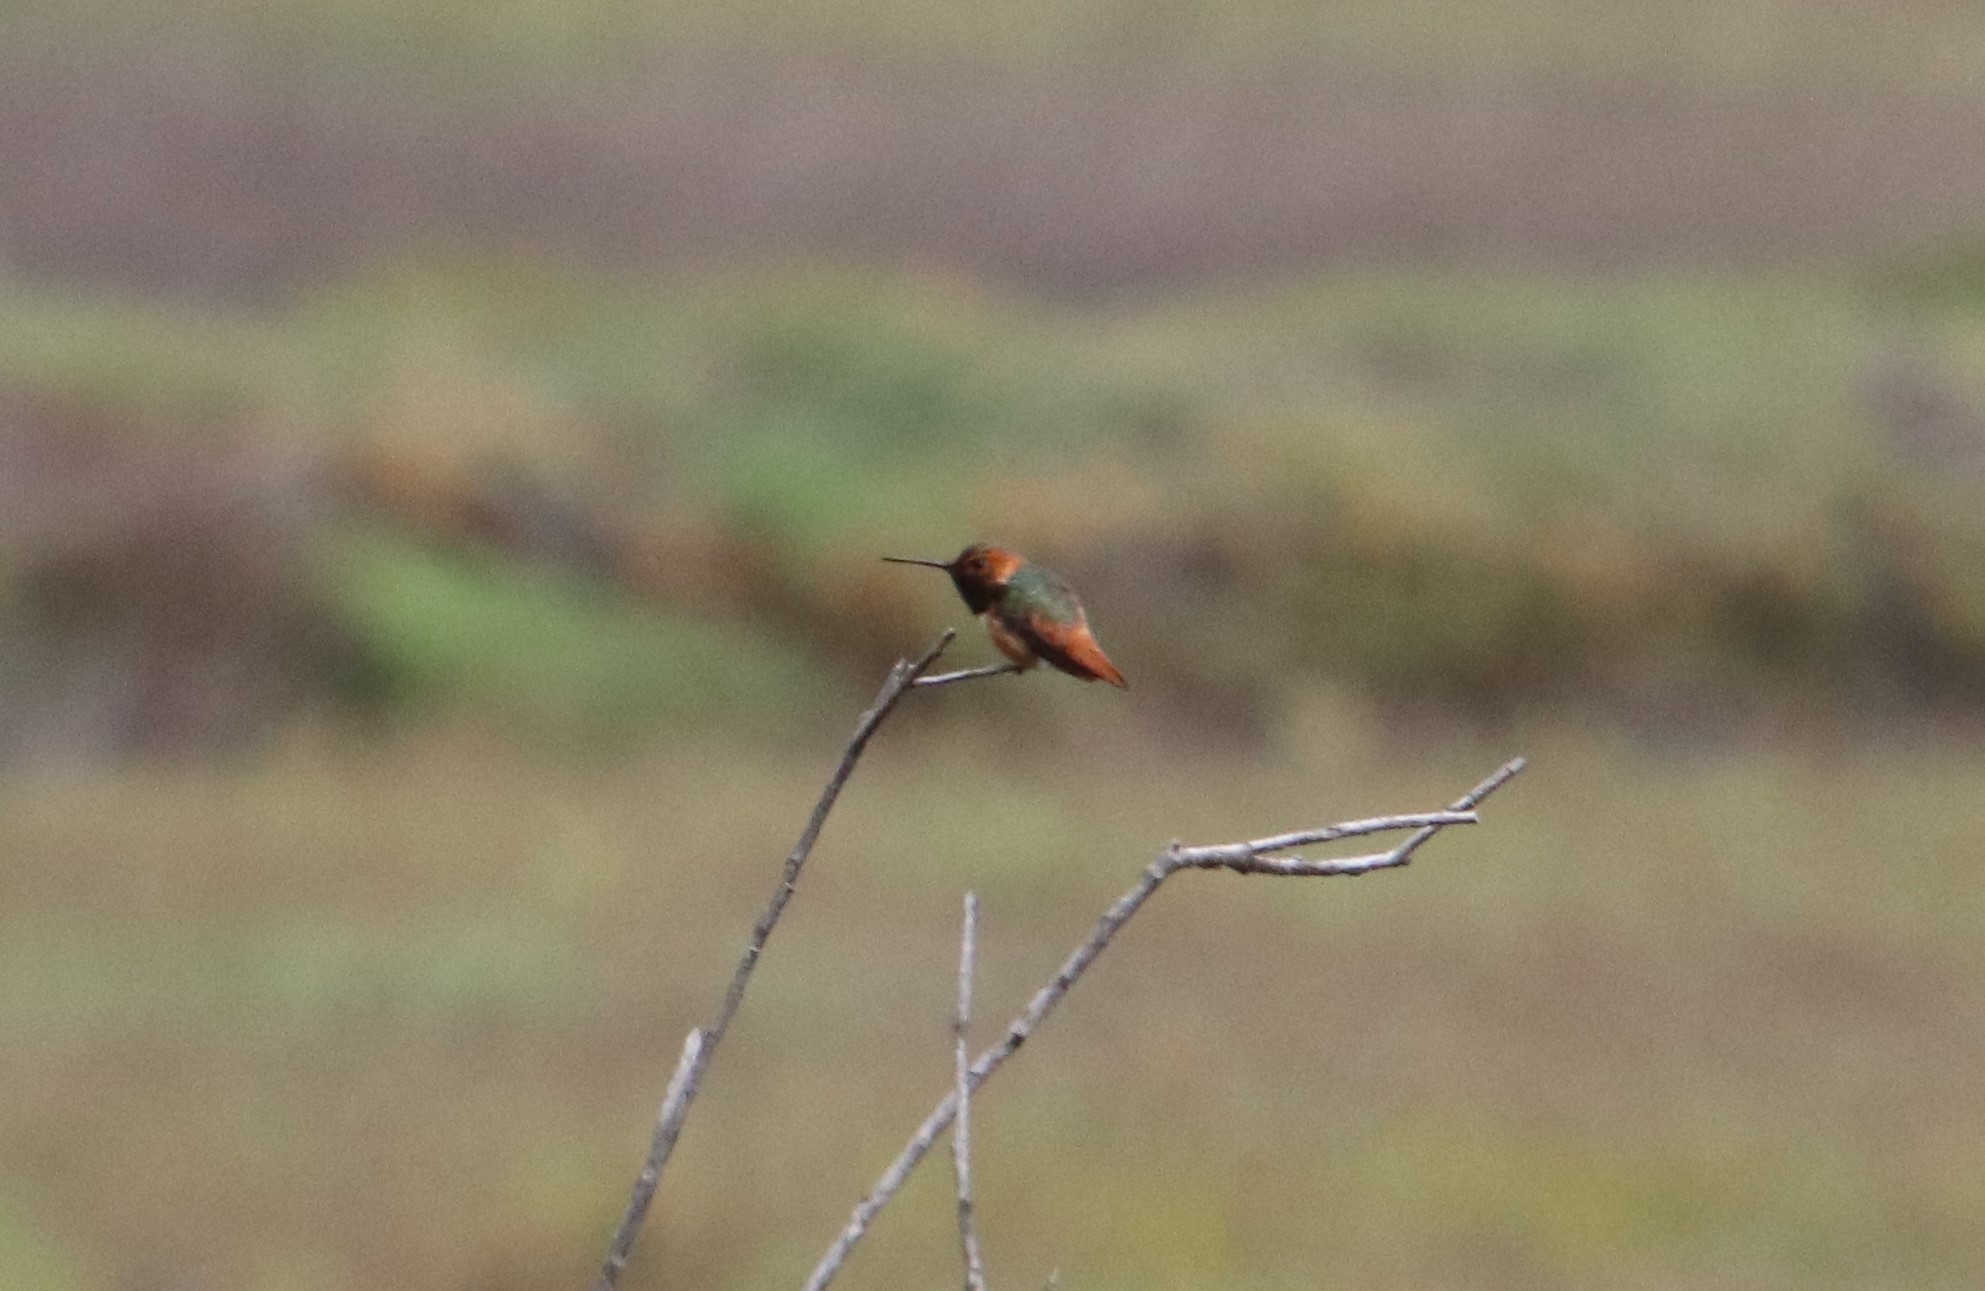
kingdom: Animalia
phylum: Chordata
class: Aves
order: Apodiformes
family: Trochilidae
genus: Selasphorus
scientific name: Selasphorus sasin
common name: Allen's hummingbird
